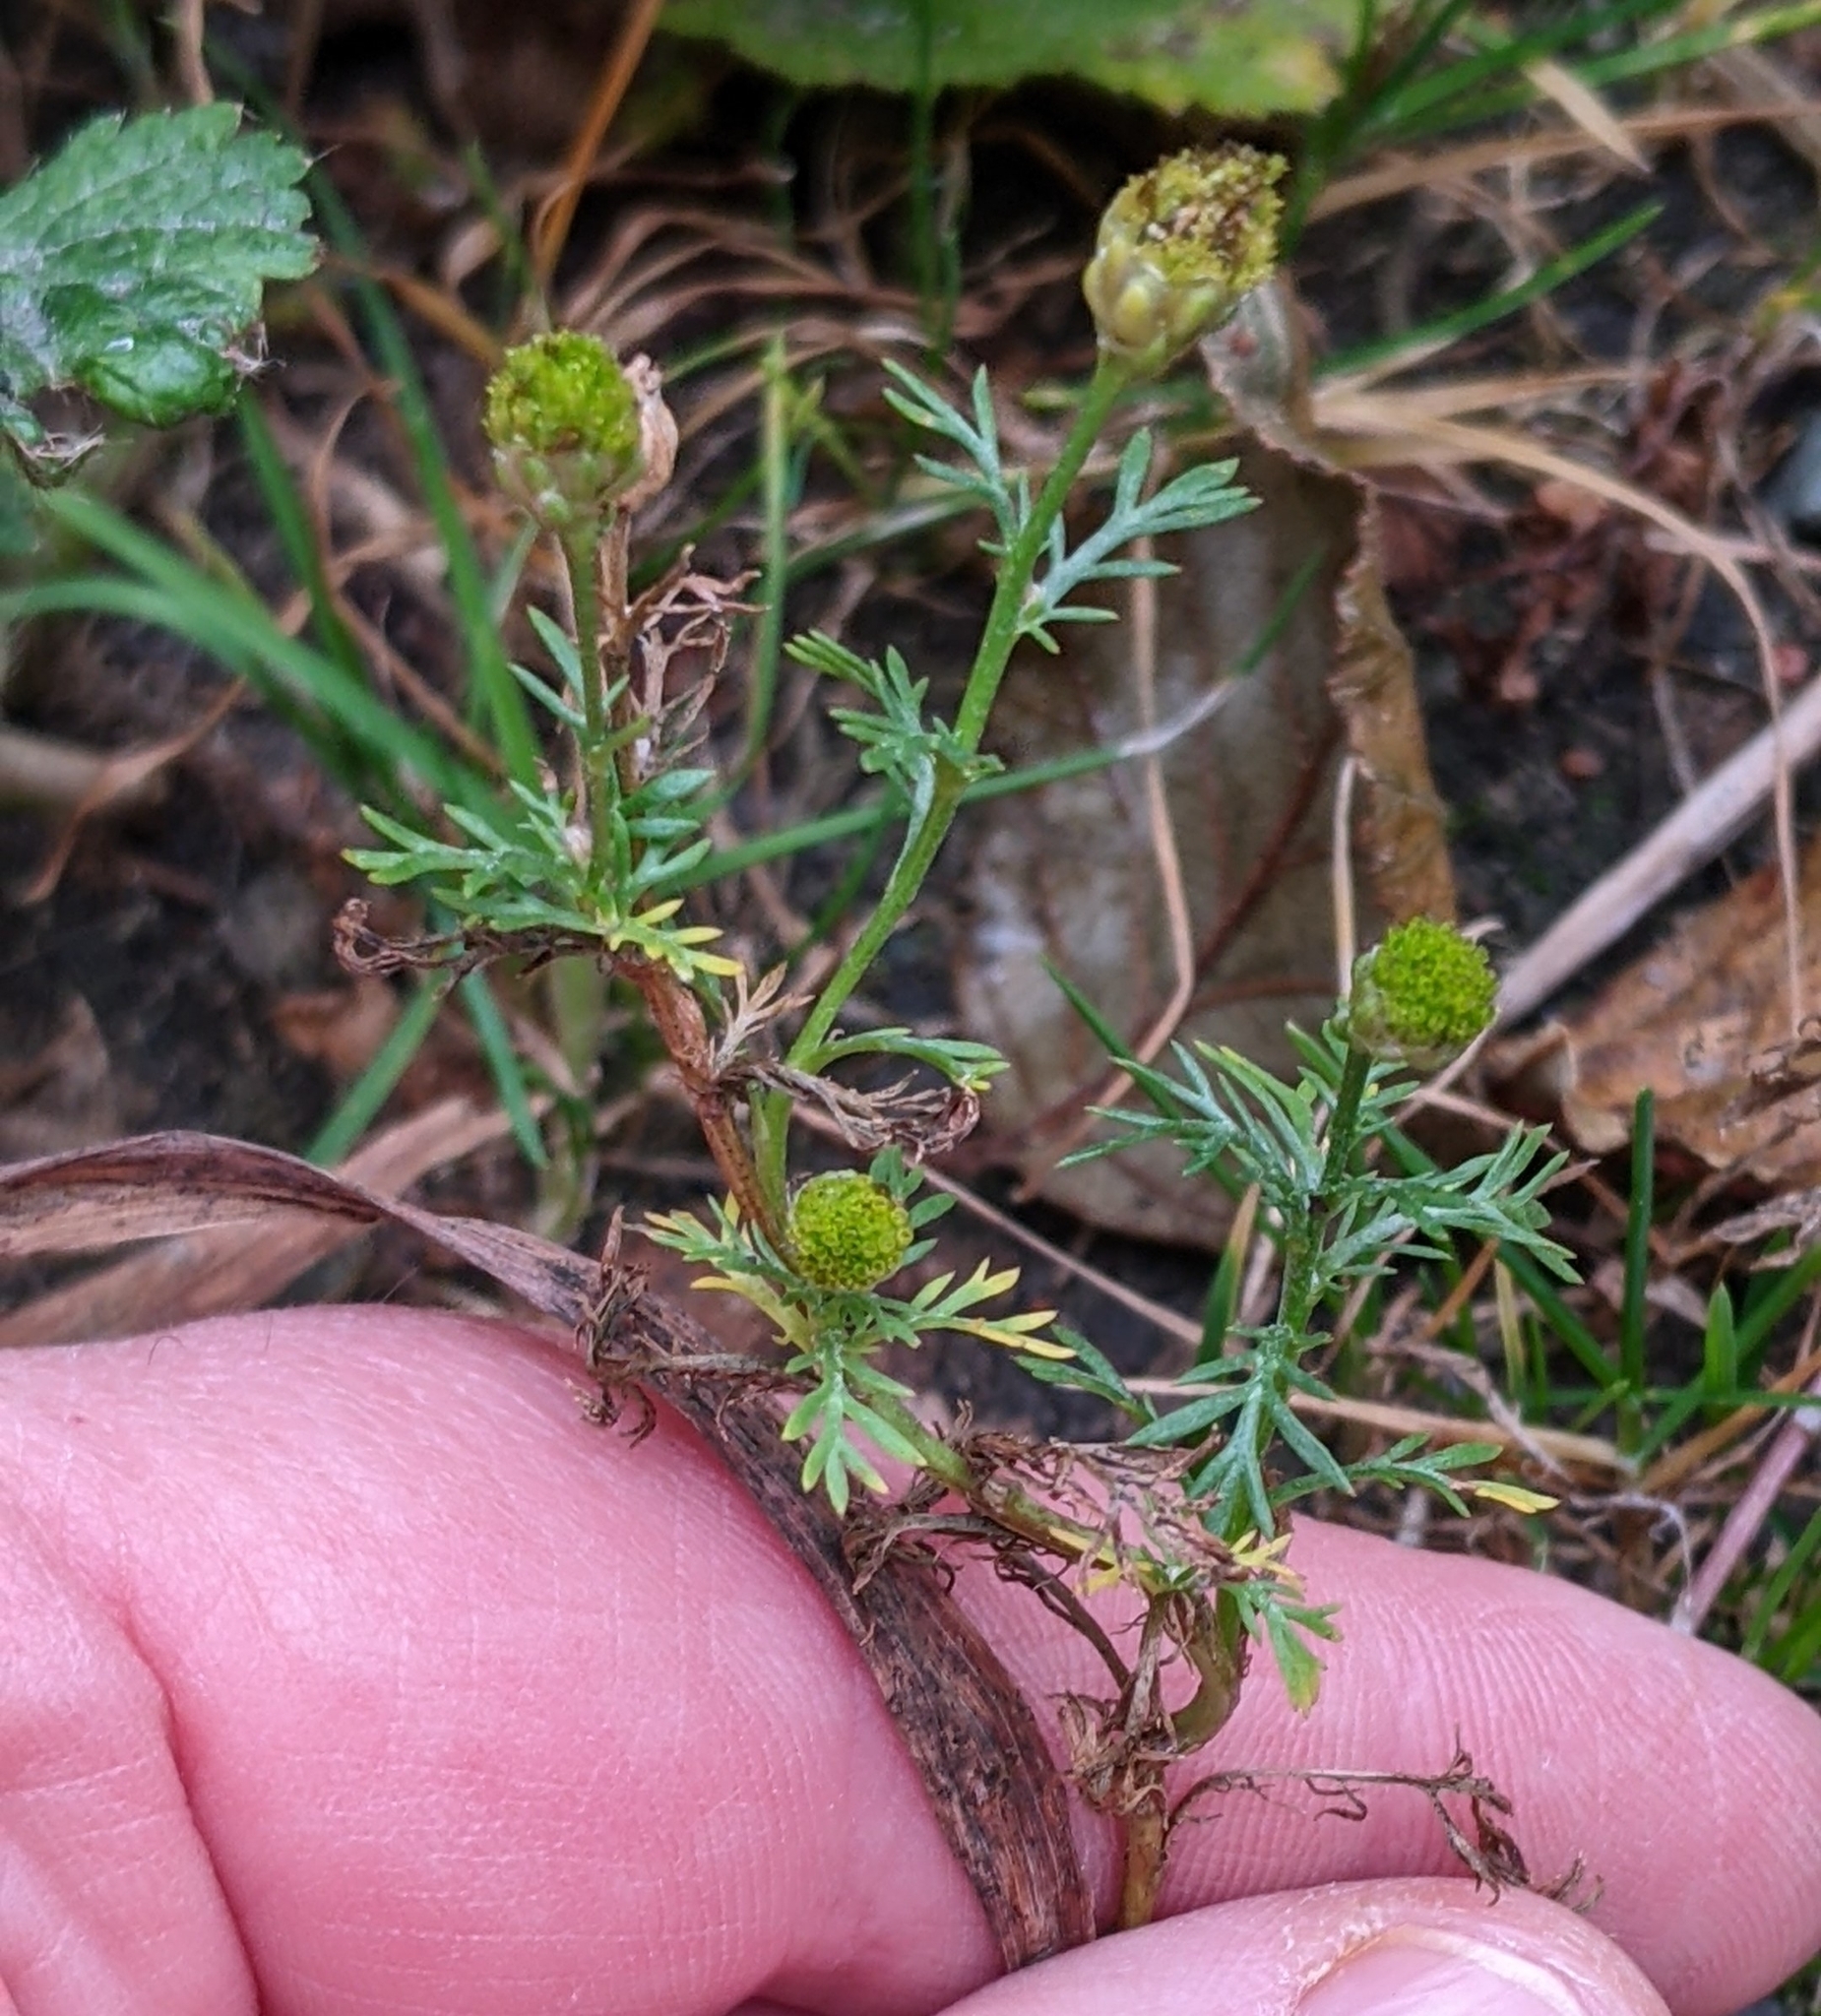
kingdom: Plantae
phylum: Tracheophyta
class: Magnoliopsida
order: Asterales
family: Asteraceae
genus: Matricaria
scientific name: Matricaria discoidea
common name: Disc mayweed
